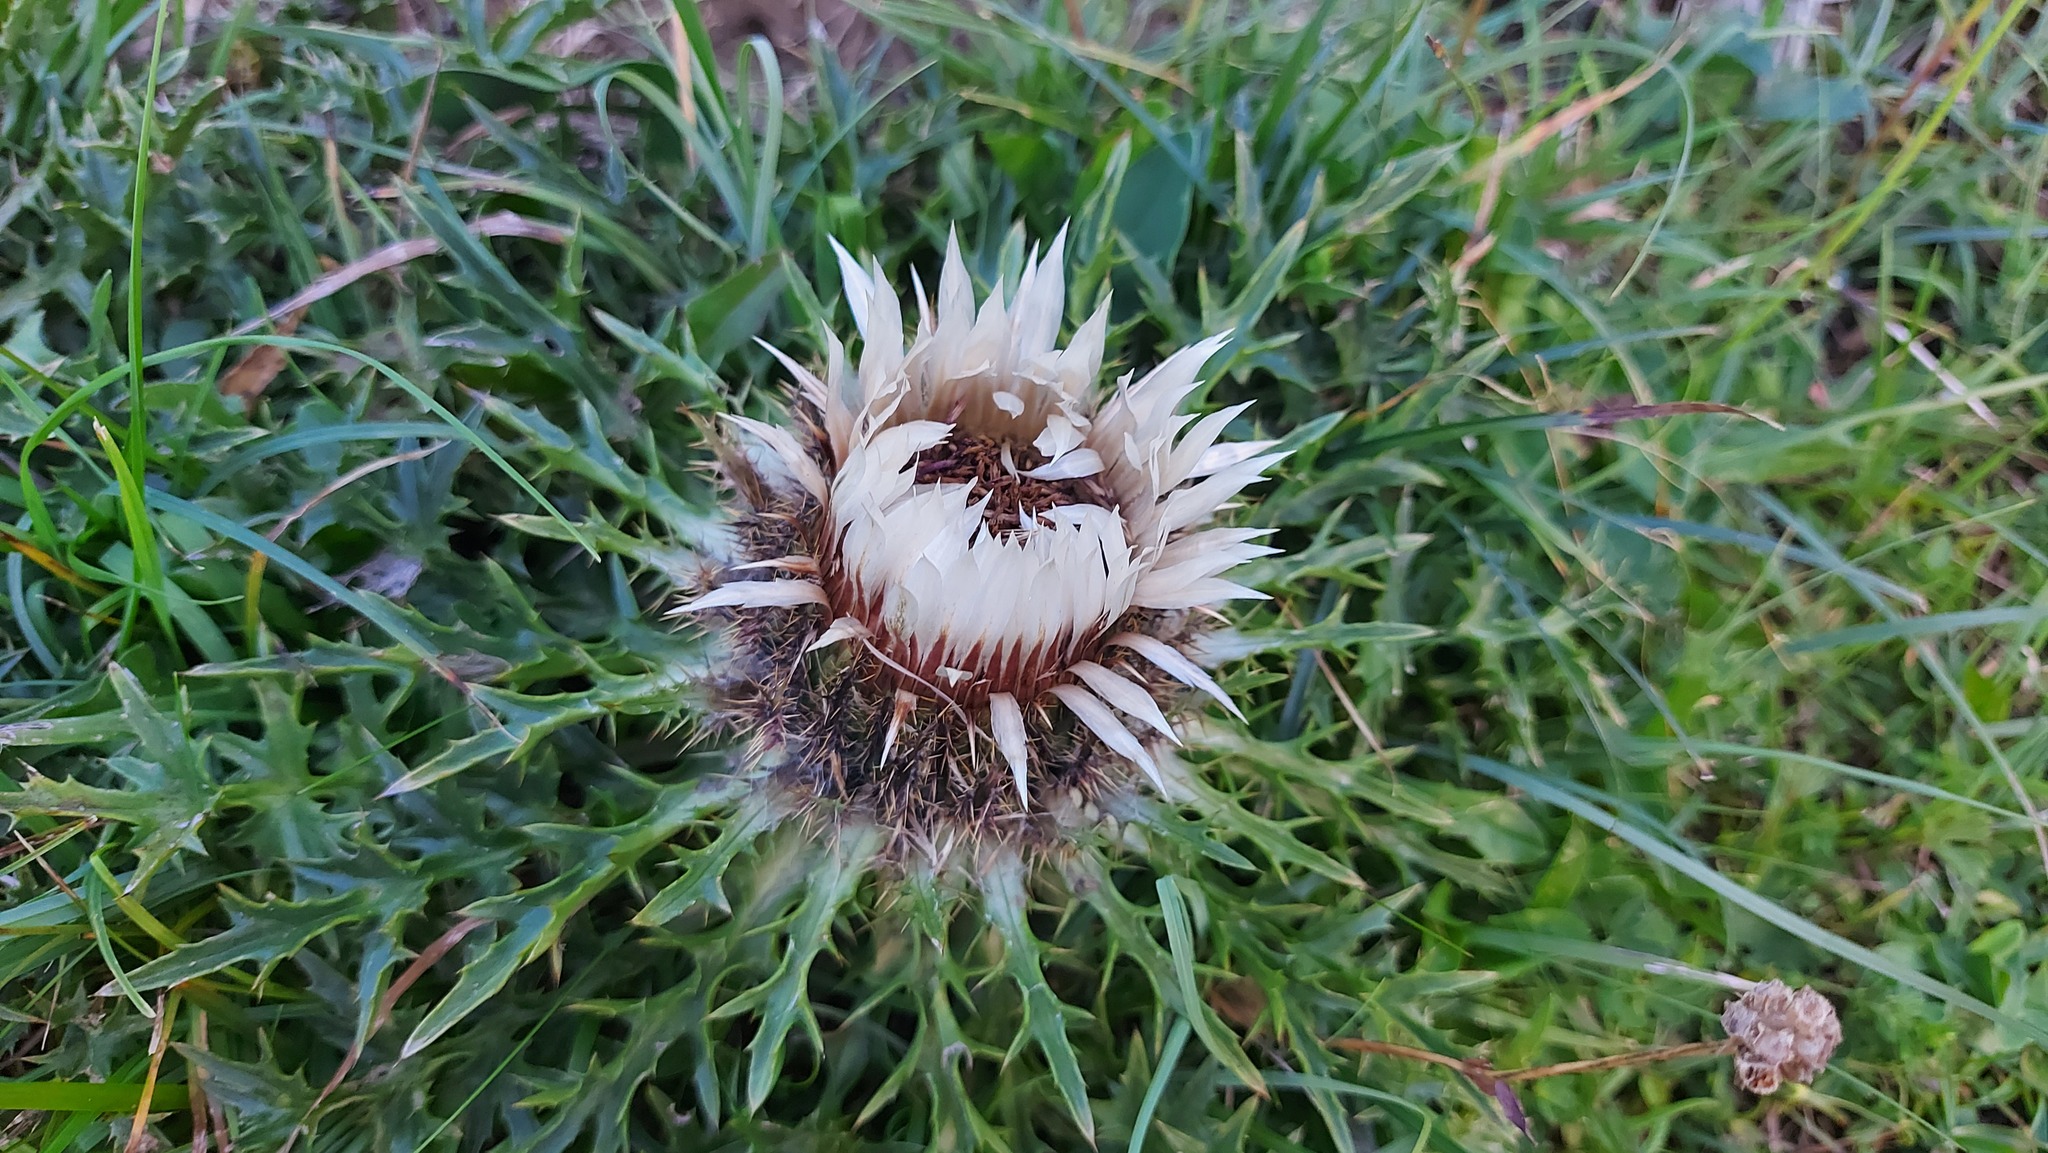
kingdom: Plantae
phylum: Tracheophyta
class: Magnoliopsida
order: Asterales
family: Asteraceae
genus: Carlina
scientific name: Carlina acaulis
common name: Stemless carline thistle
